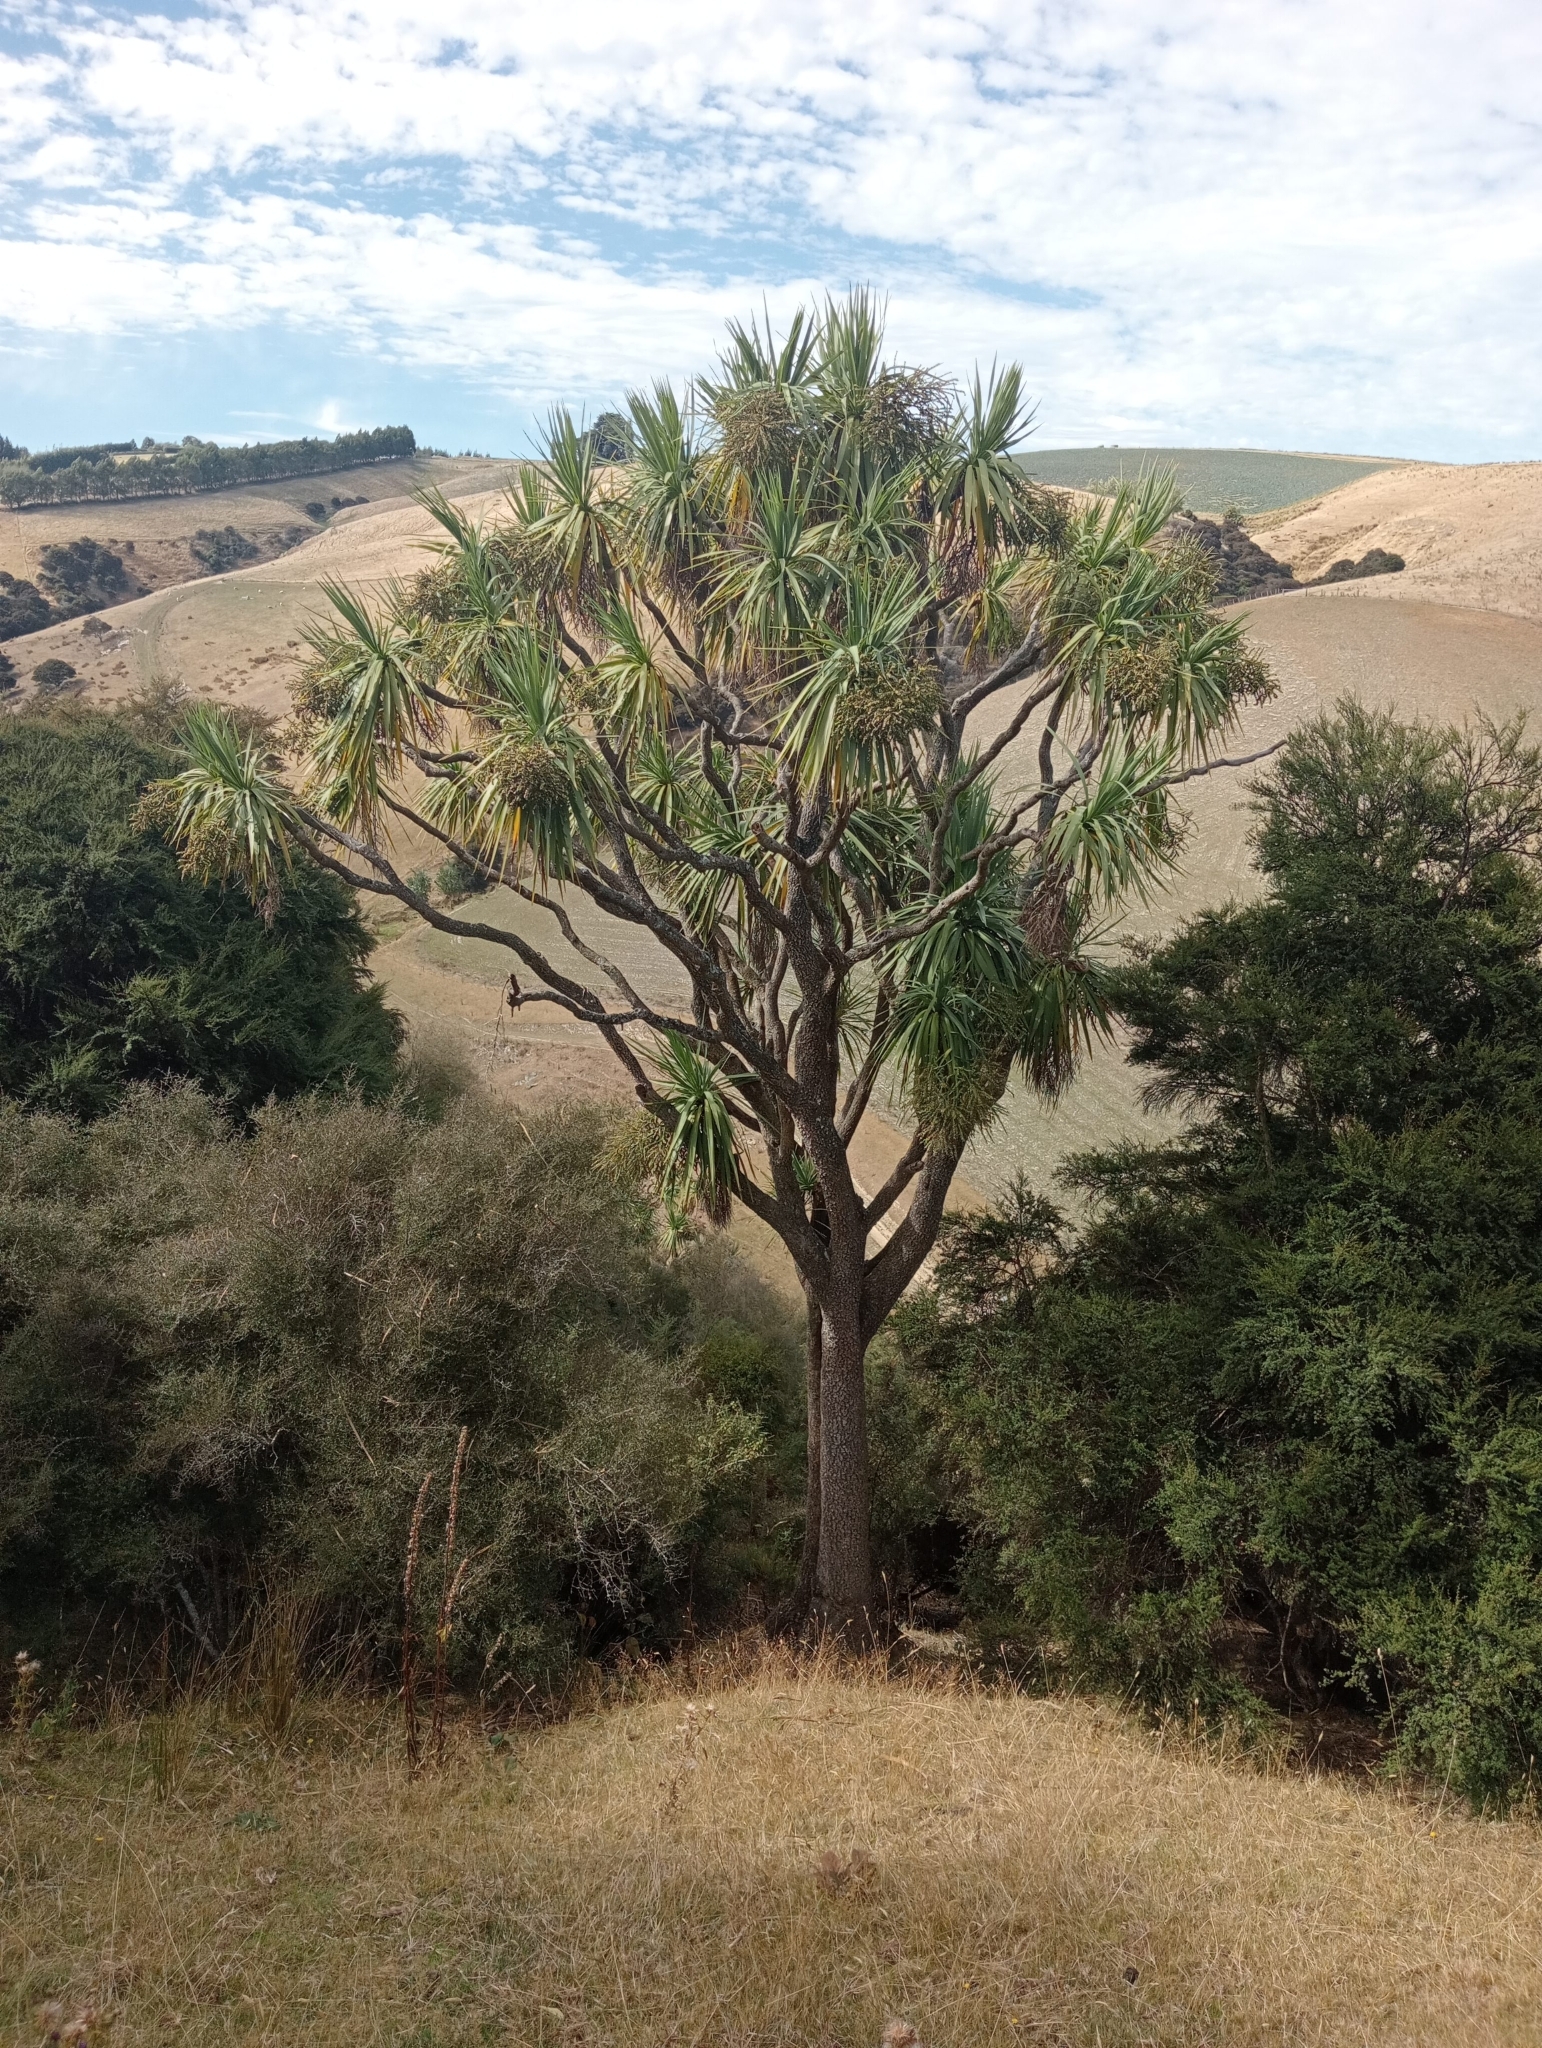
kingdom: Plantae
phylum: Tracheophyta
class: Liliopsida
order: Asparagales
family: Asparagaceae
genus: Cordyline
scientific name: Cordyline australis
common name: Cabbage-palm
